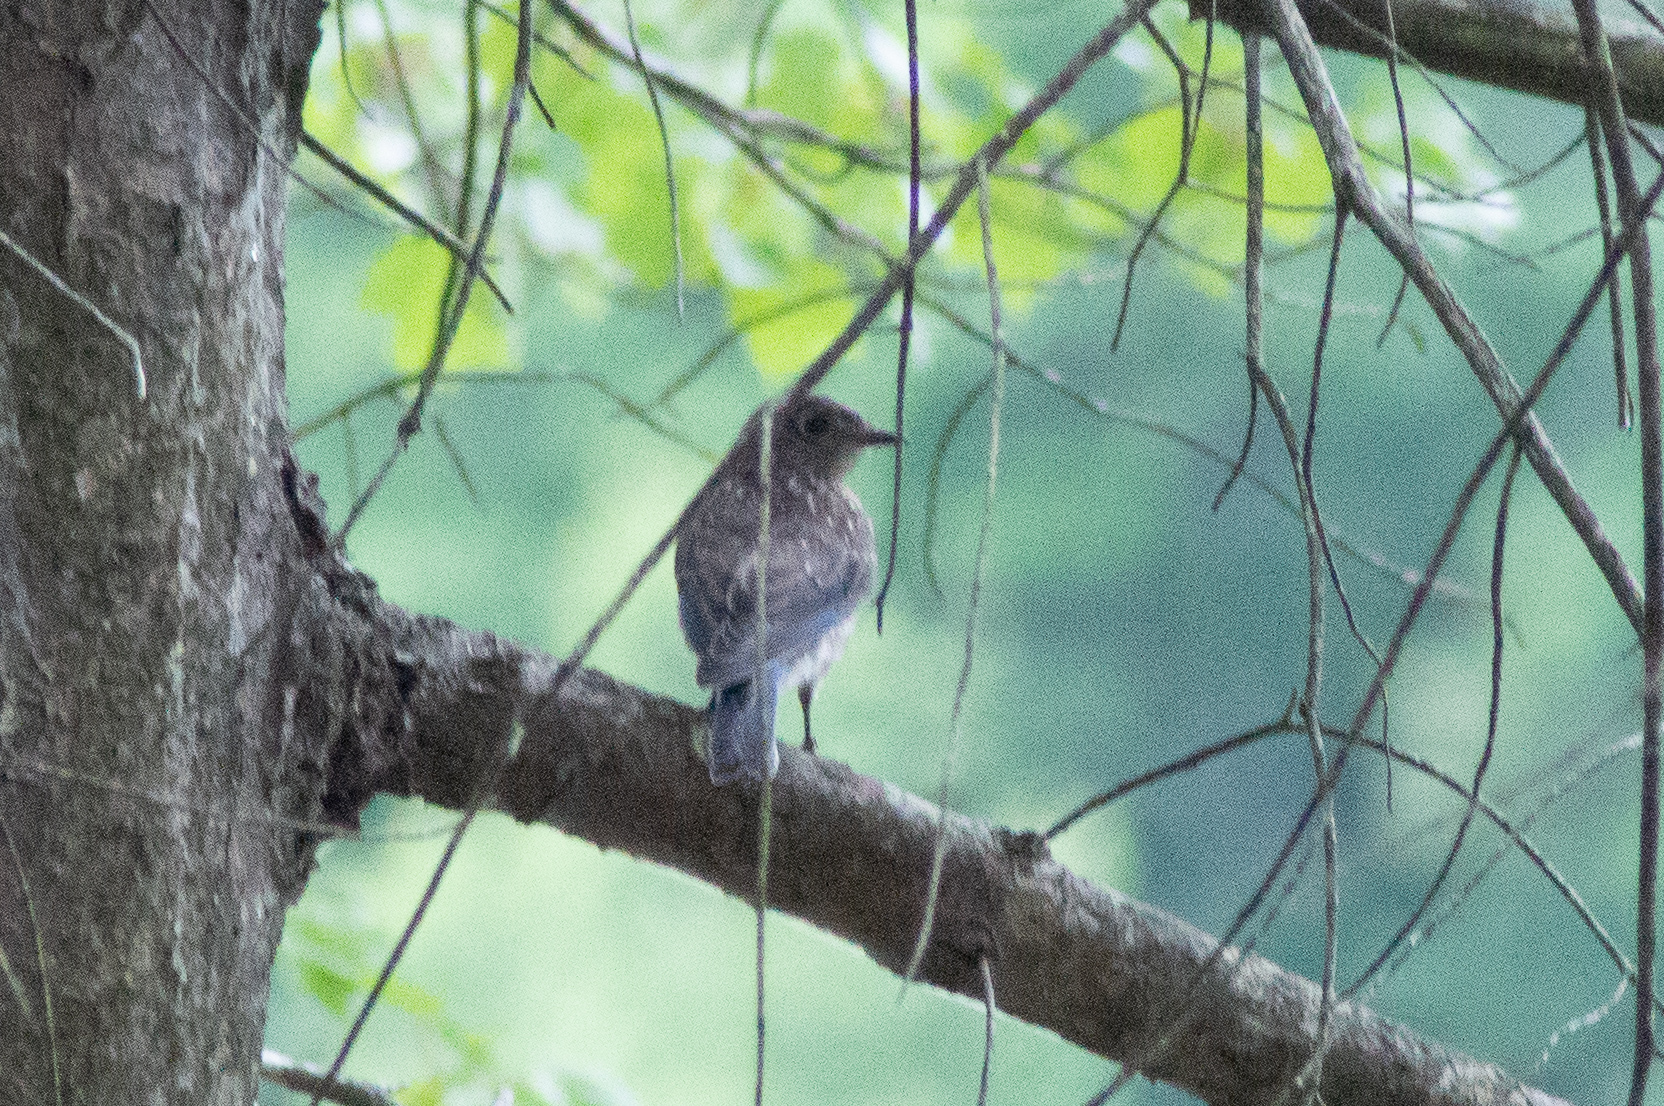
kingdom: Animalia
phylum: Chordata
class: Aves
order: Passeriformes
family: Turdidae
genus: Sialia
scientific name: Sialia sialis
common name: Eastern bluebird
